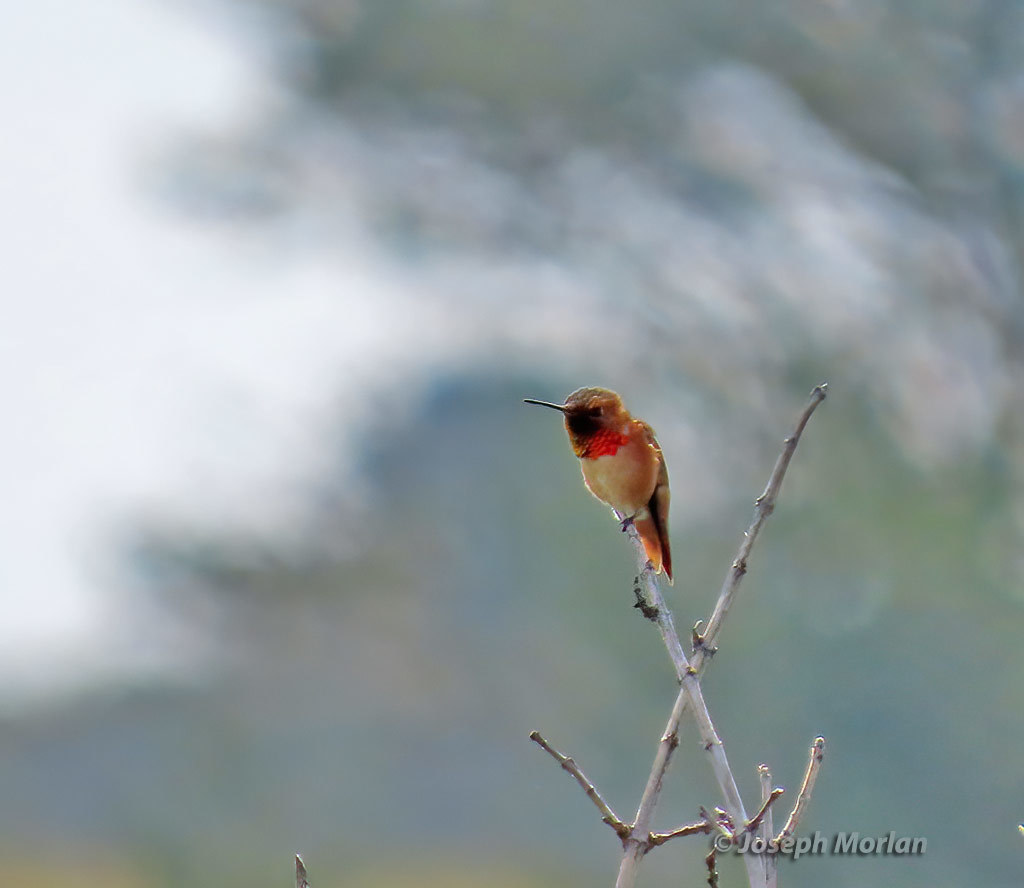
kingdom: Animalia
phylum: Chordata
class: Aves
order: Apodiformes
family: Trochilidae
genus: Selasphorus
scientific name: Selasphorus sasin
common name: Allen's hummingbird
